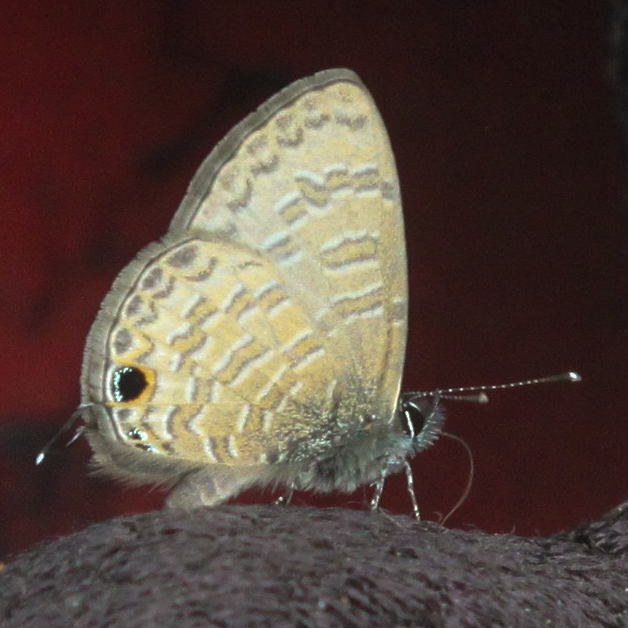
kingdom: Animalia
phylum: Arthropoda
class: Insecta
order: Lepidoptera
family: Lycaenidae
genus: Prosotas
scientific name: Prosotas nora
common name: Common line blue
